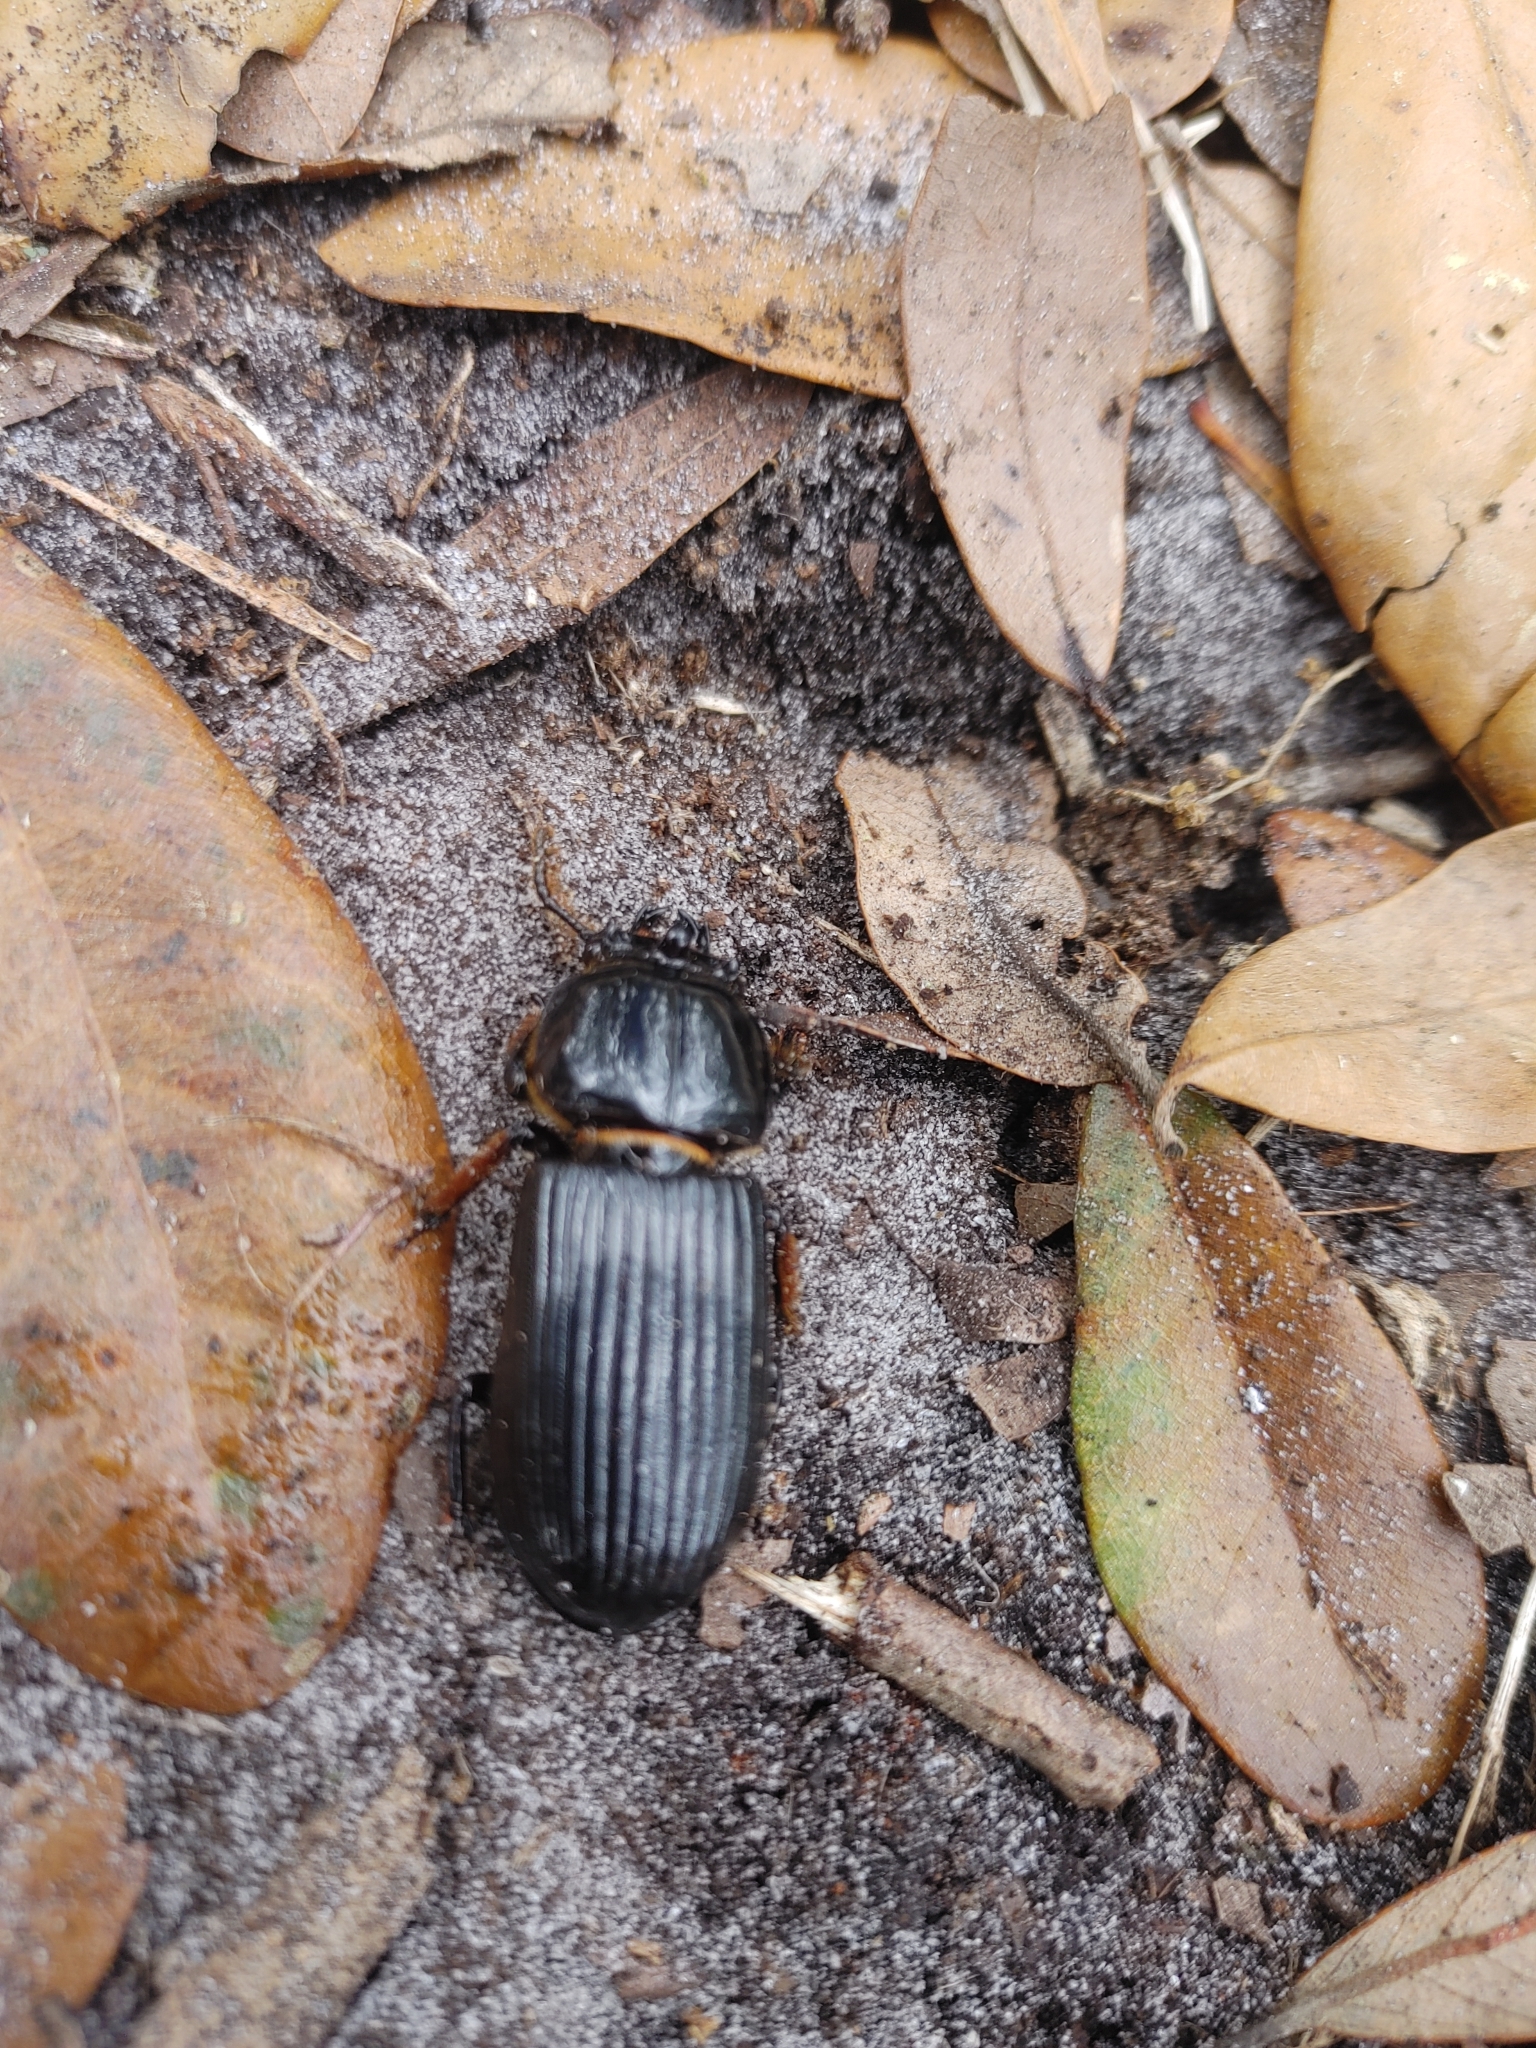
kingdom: Animalia
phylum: Arthropoda
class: Insecta
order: Coleoptera
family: Passalidae
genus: Odontotaenius
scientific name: Odontotaenius disjunctus
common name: Patent leather beetle
